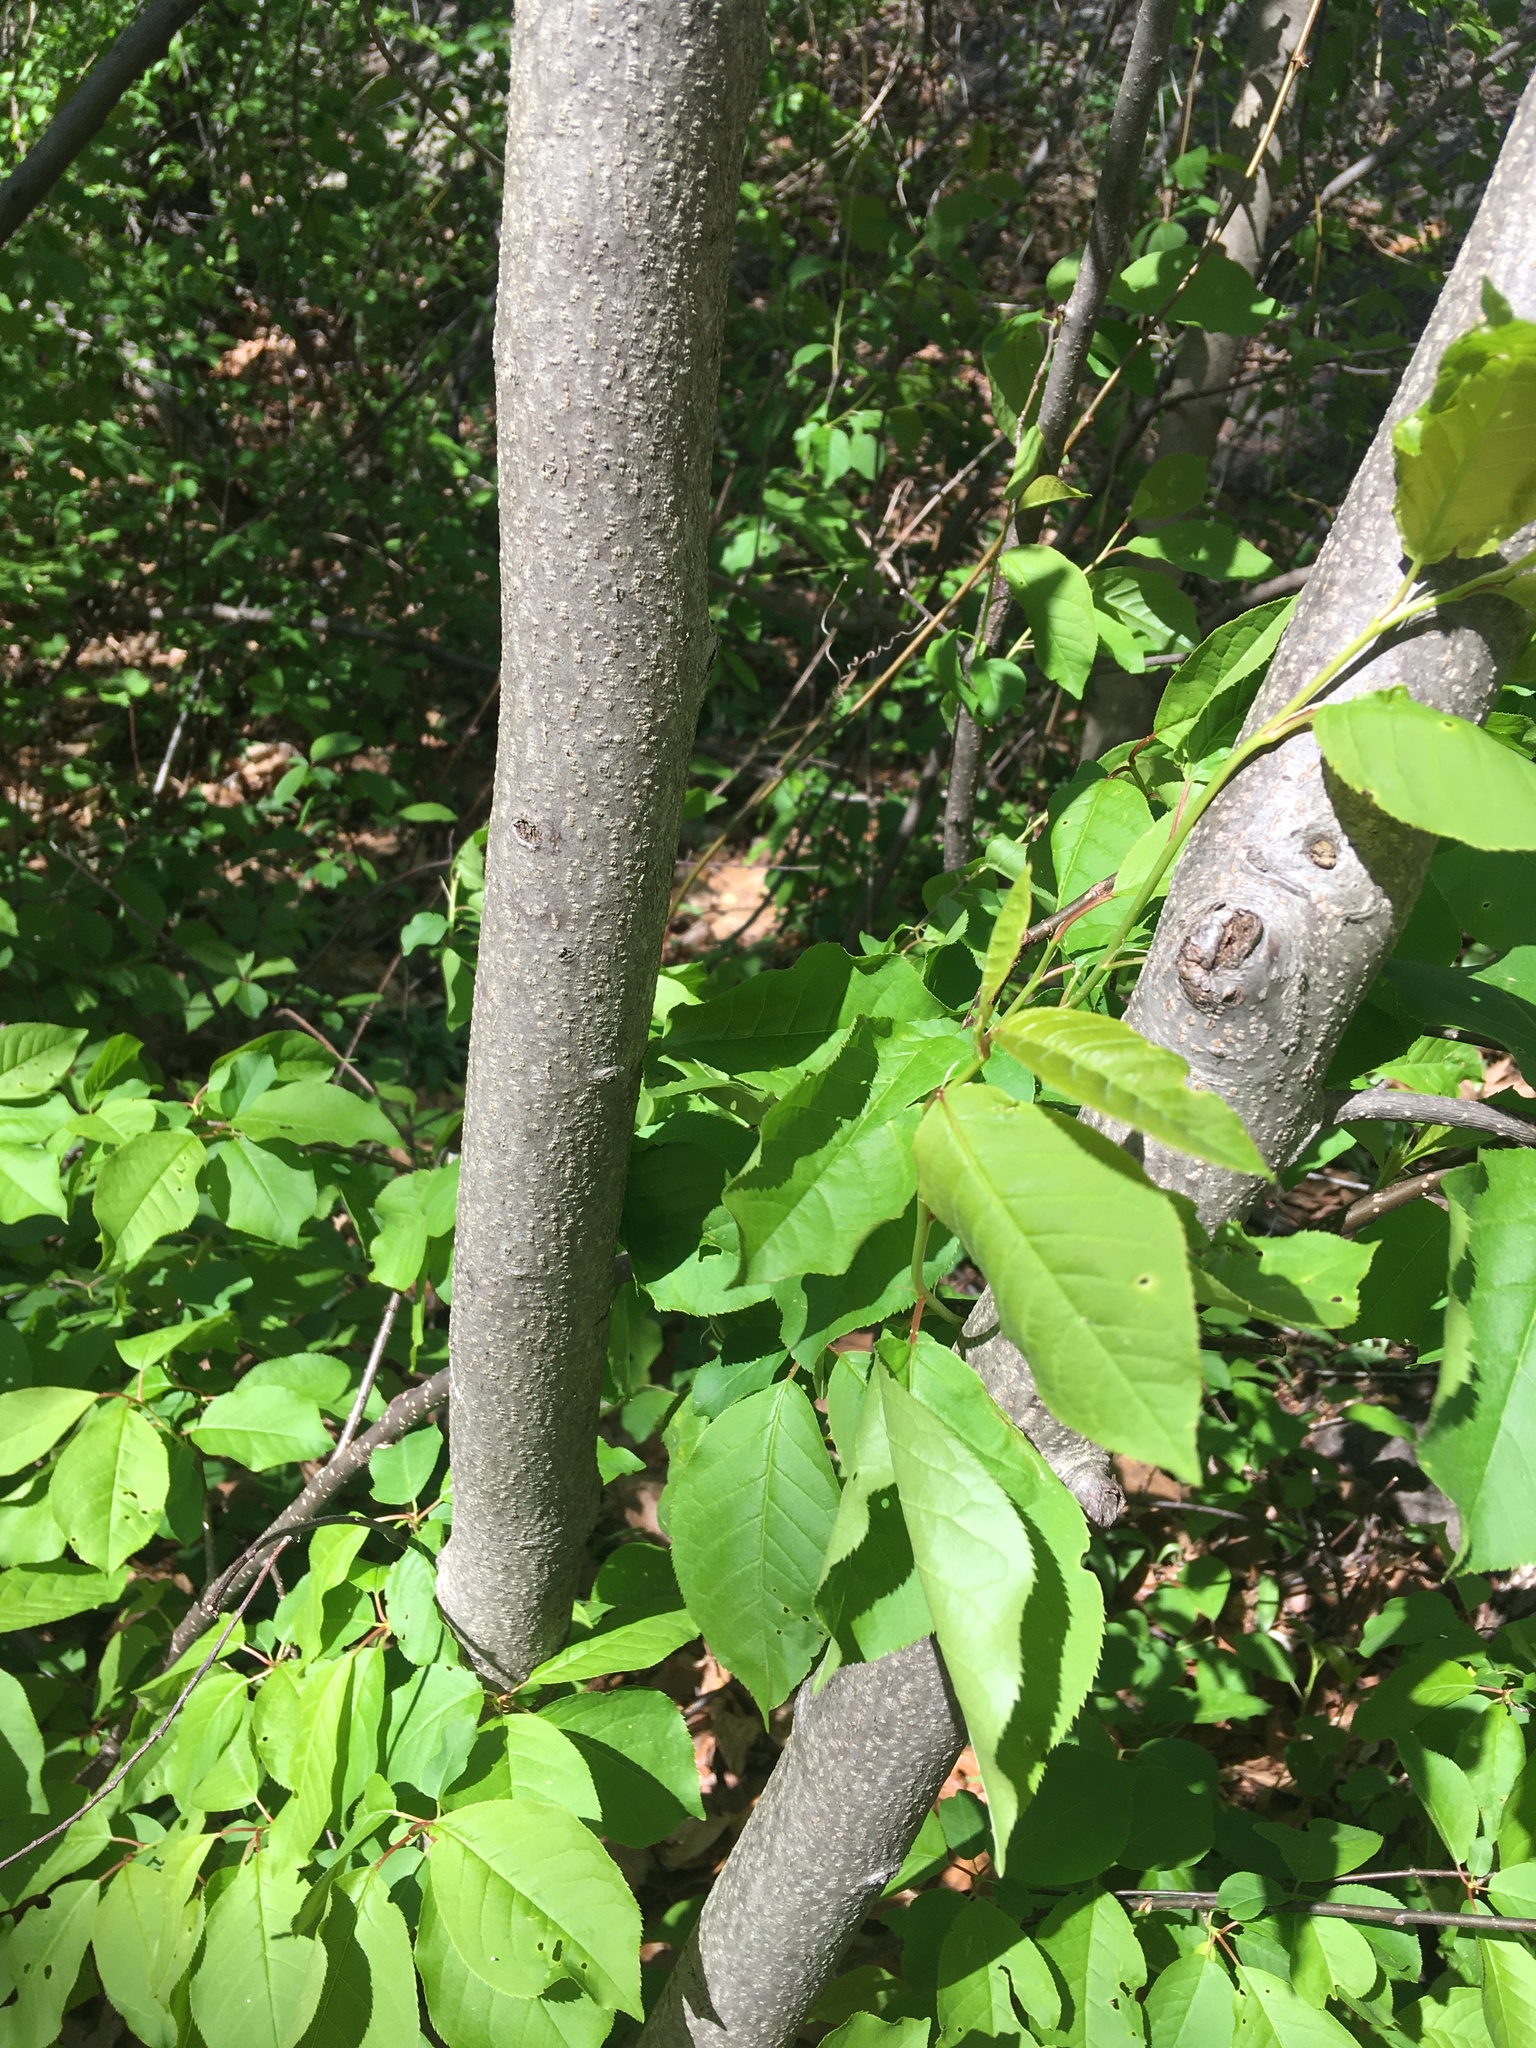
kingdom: Plantae
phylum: Tracheophyta
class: Magnoliopsida
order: Rosales
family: Rosaceae
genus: Prunus
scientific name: Prunus virginiana
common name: Chokecherry
